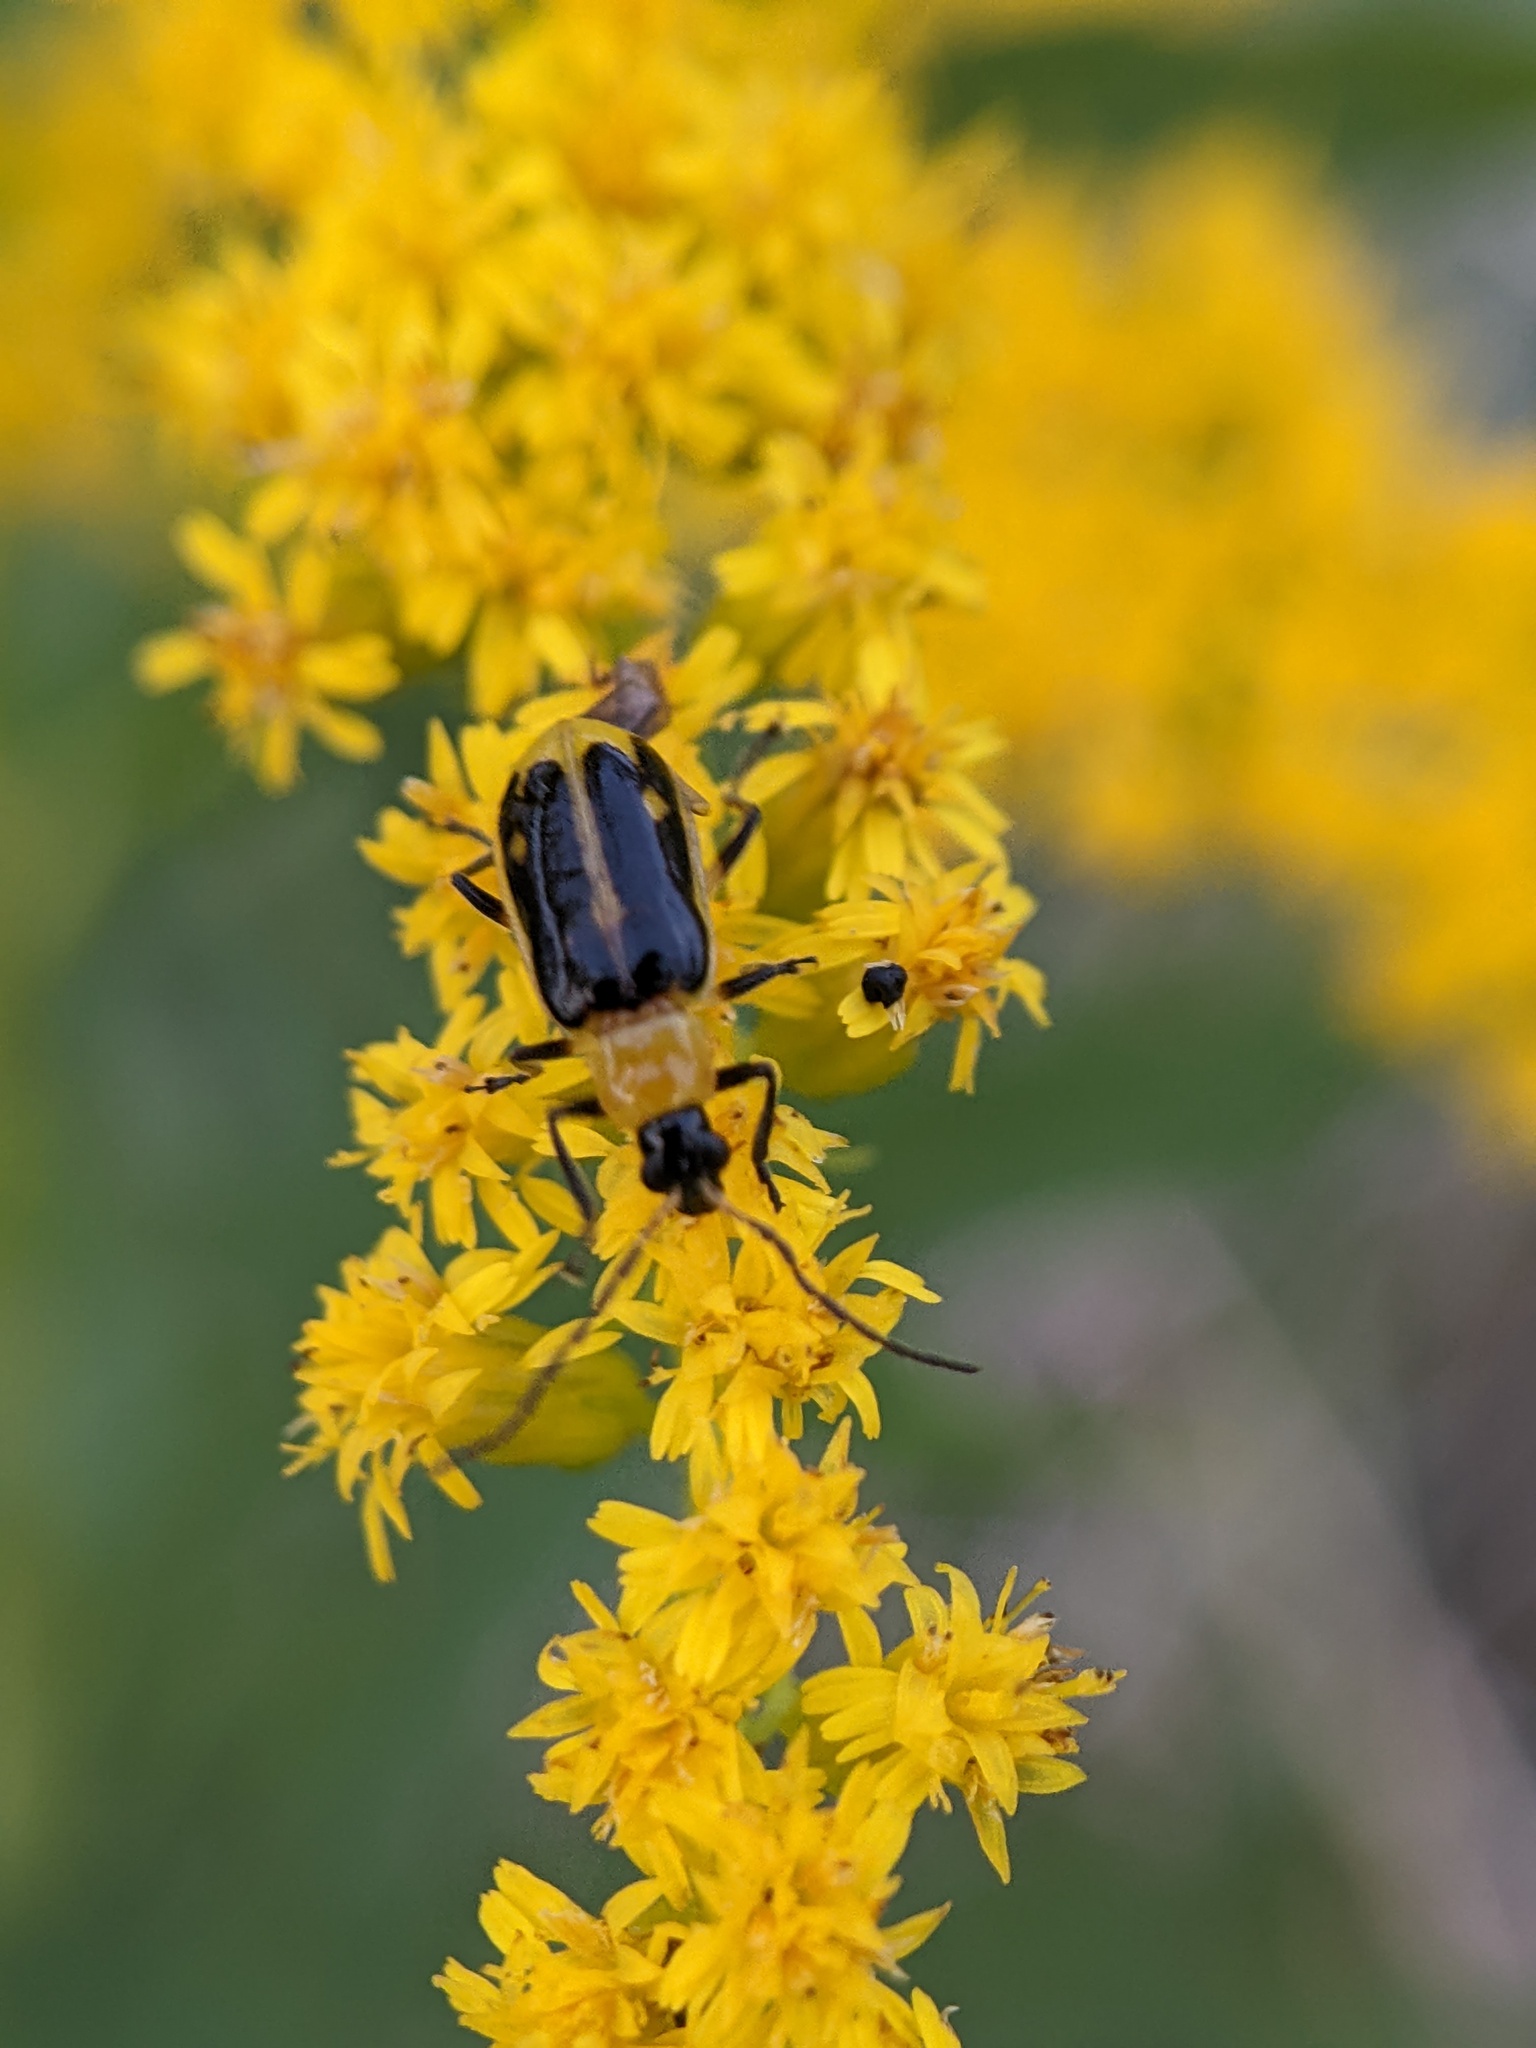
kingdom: Animalia
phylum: Arthropoda
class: Insecta
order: Coleoptera
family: Chrysomelidae
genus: Diabrotica
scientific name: Diabrotica virgifera
